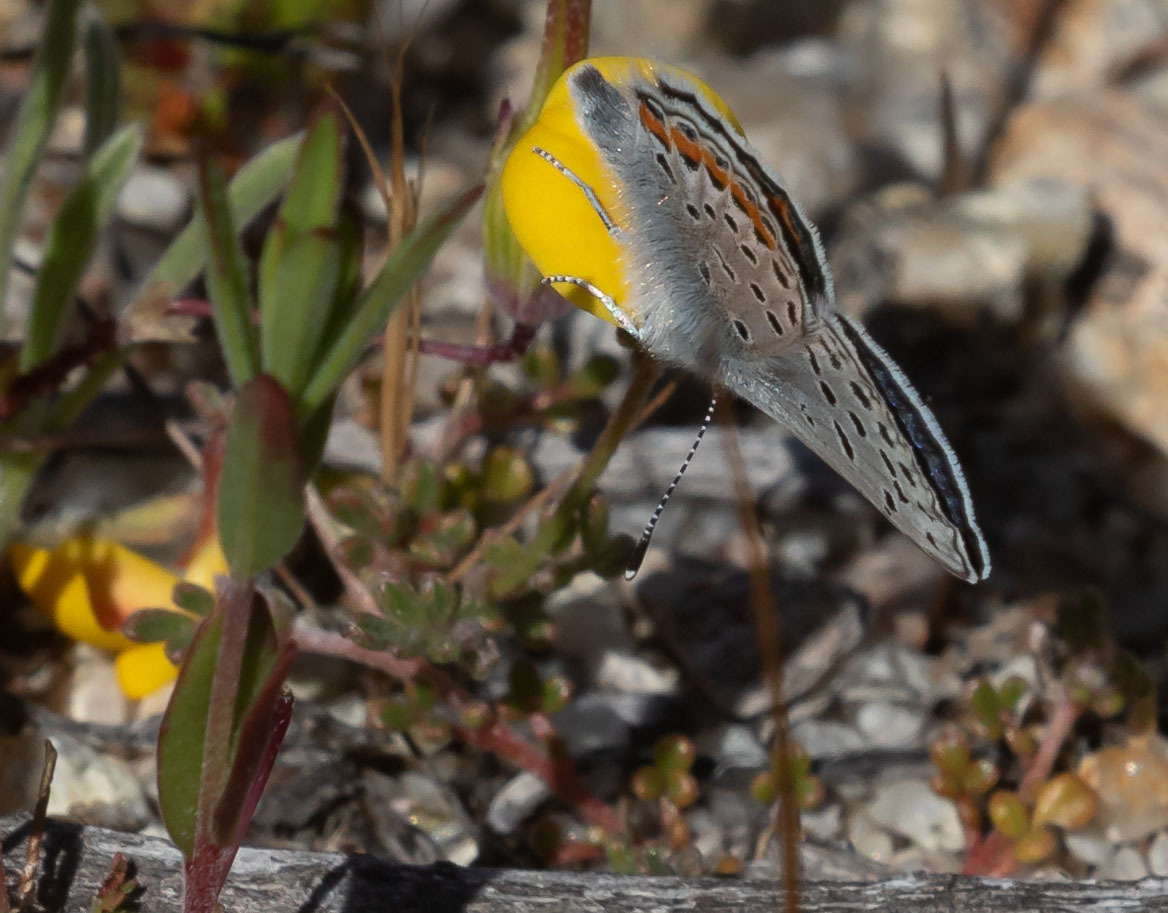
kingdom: Animalia
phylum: Arthropoda
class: Insecta
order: Lepidoptera
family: Lycaenidae
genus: Icaricia
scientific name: Icaricia acmon
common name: Acmon blue
